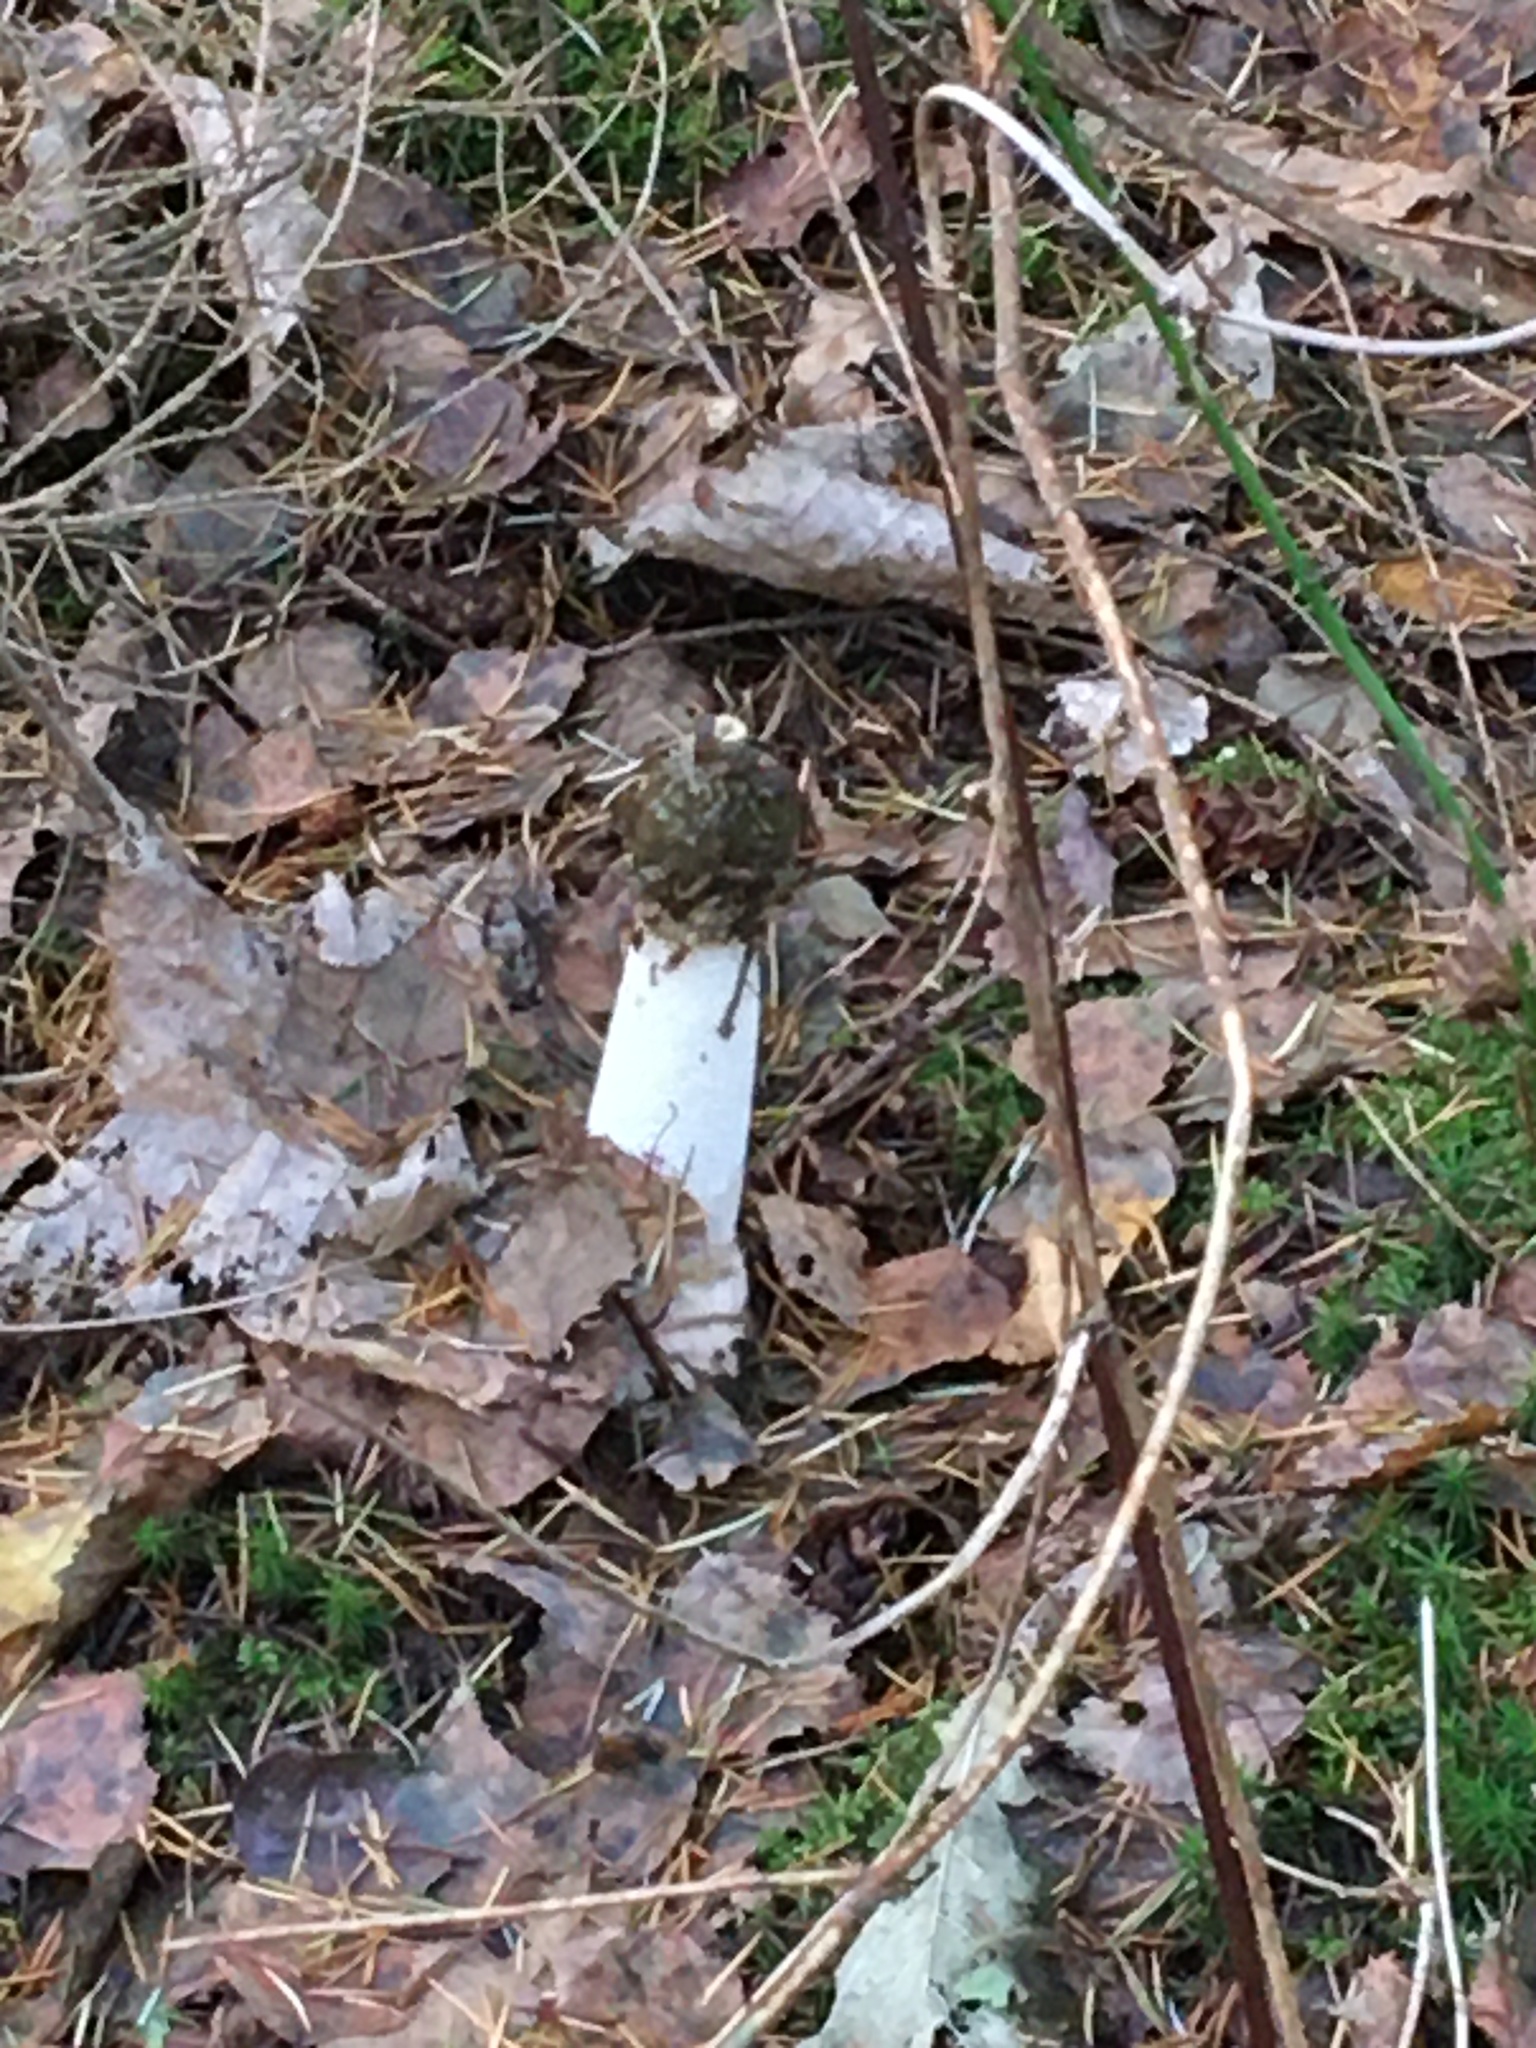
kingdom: Fungi
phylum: Basidiomycota
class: Agaricomycetes
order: Phallales
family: Phallaceae
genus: Phallus
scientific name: Phallus impudicus
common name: Common stinkhorn
